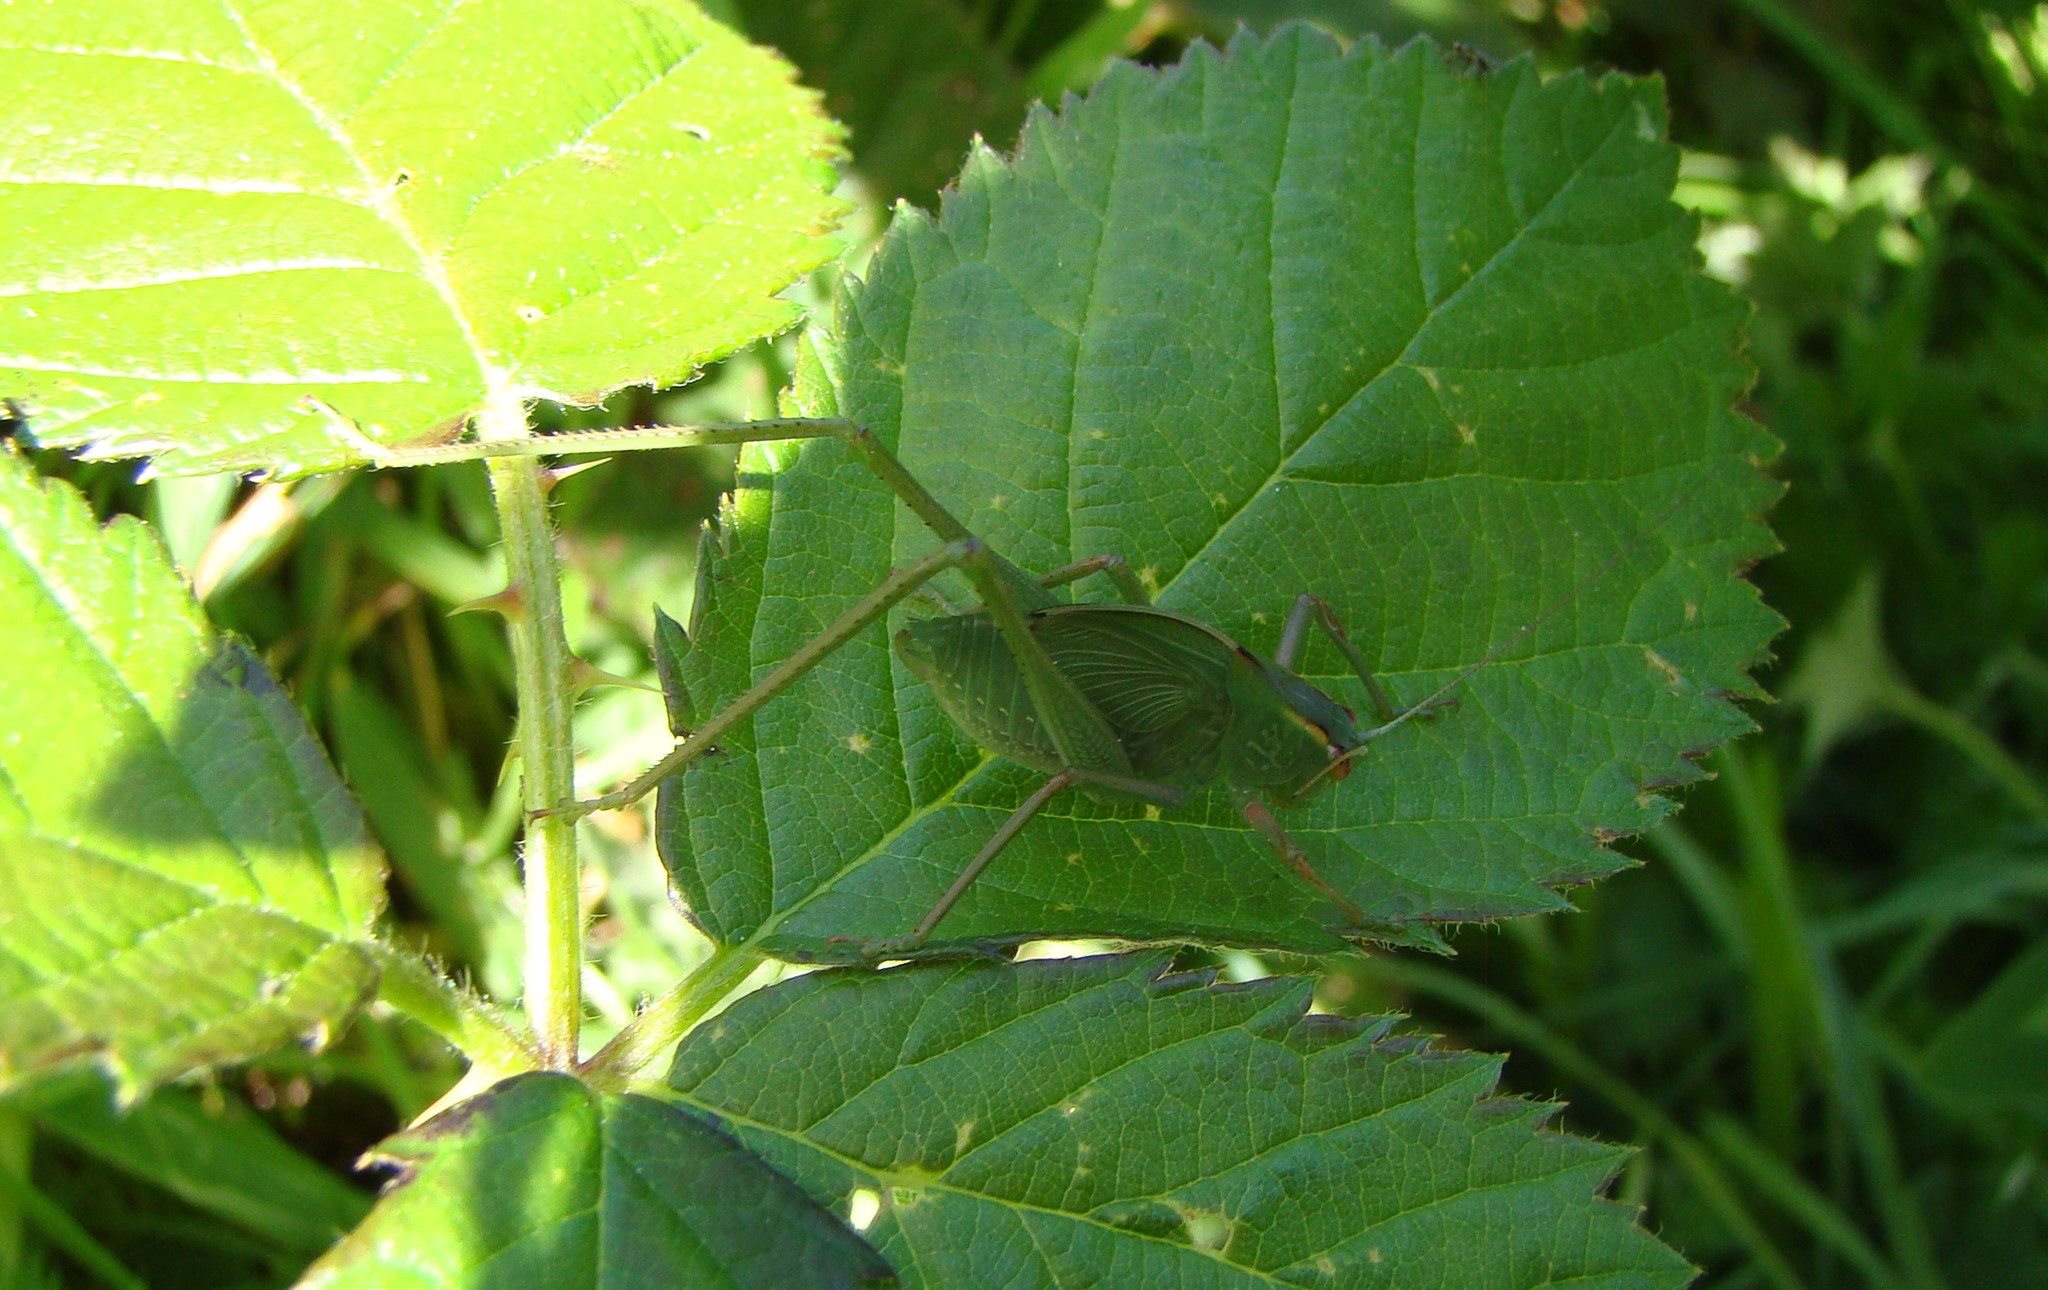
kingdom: Animalia
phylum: Arthropoda
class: Insecta
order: Orthoptera
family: Tettigoniidae
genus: Caedicia
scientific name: Caedicia simplex
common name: Common garden katydid
